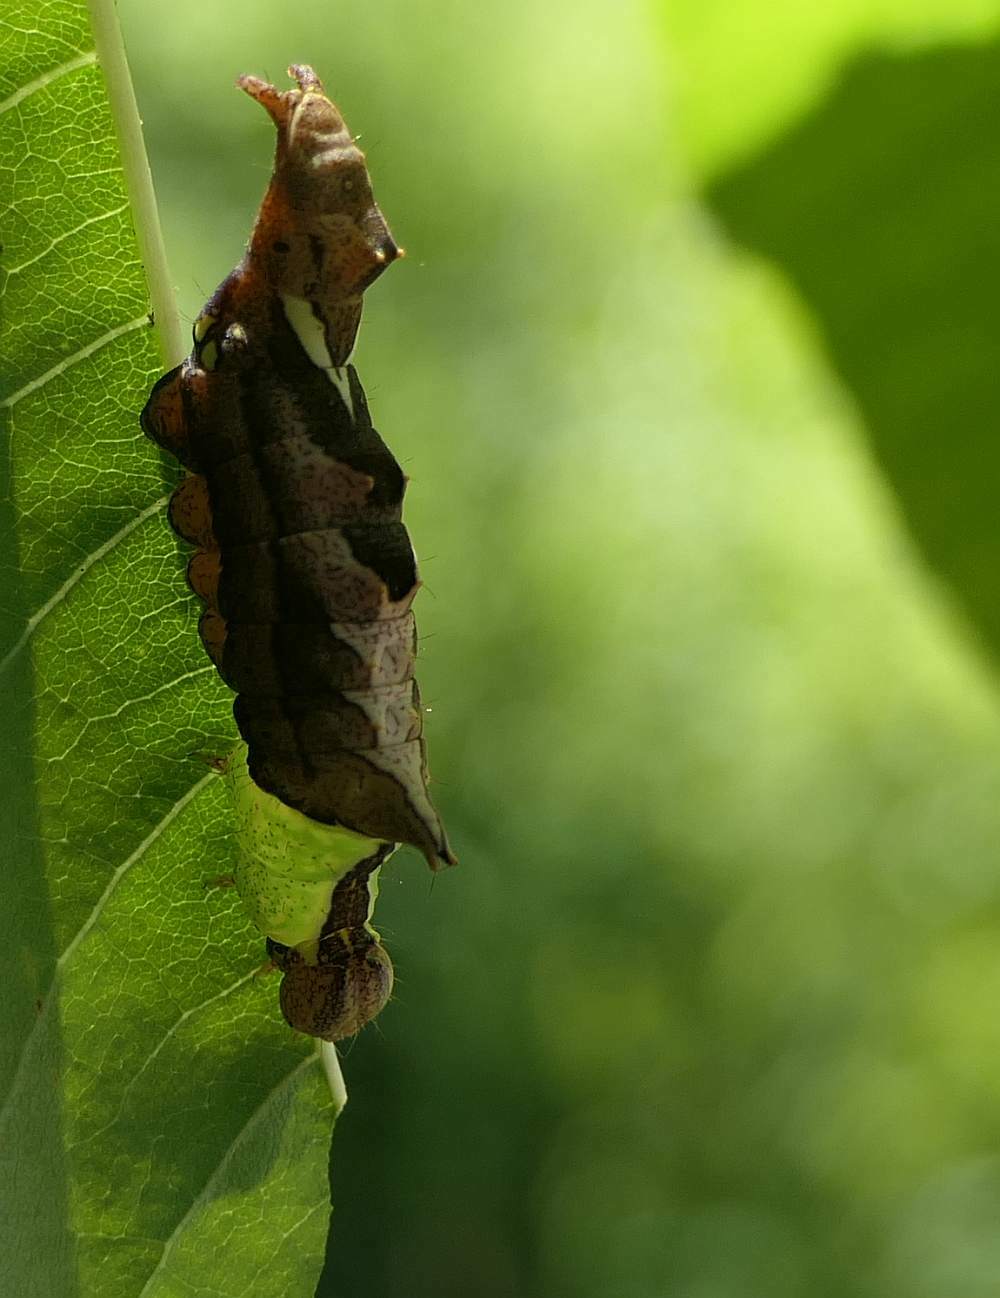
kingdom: Animalia
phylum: Arthropoda
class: Insecta
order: Lepidoptera
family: Notodontidae
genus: Schizura
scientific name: Schizura
